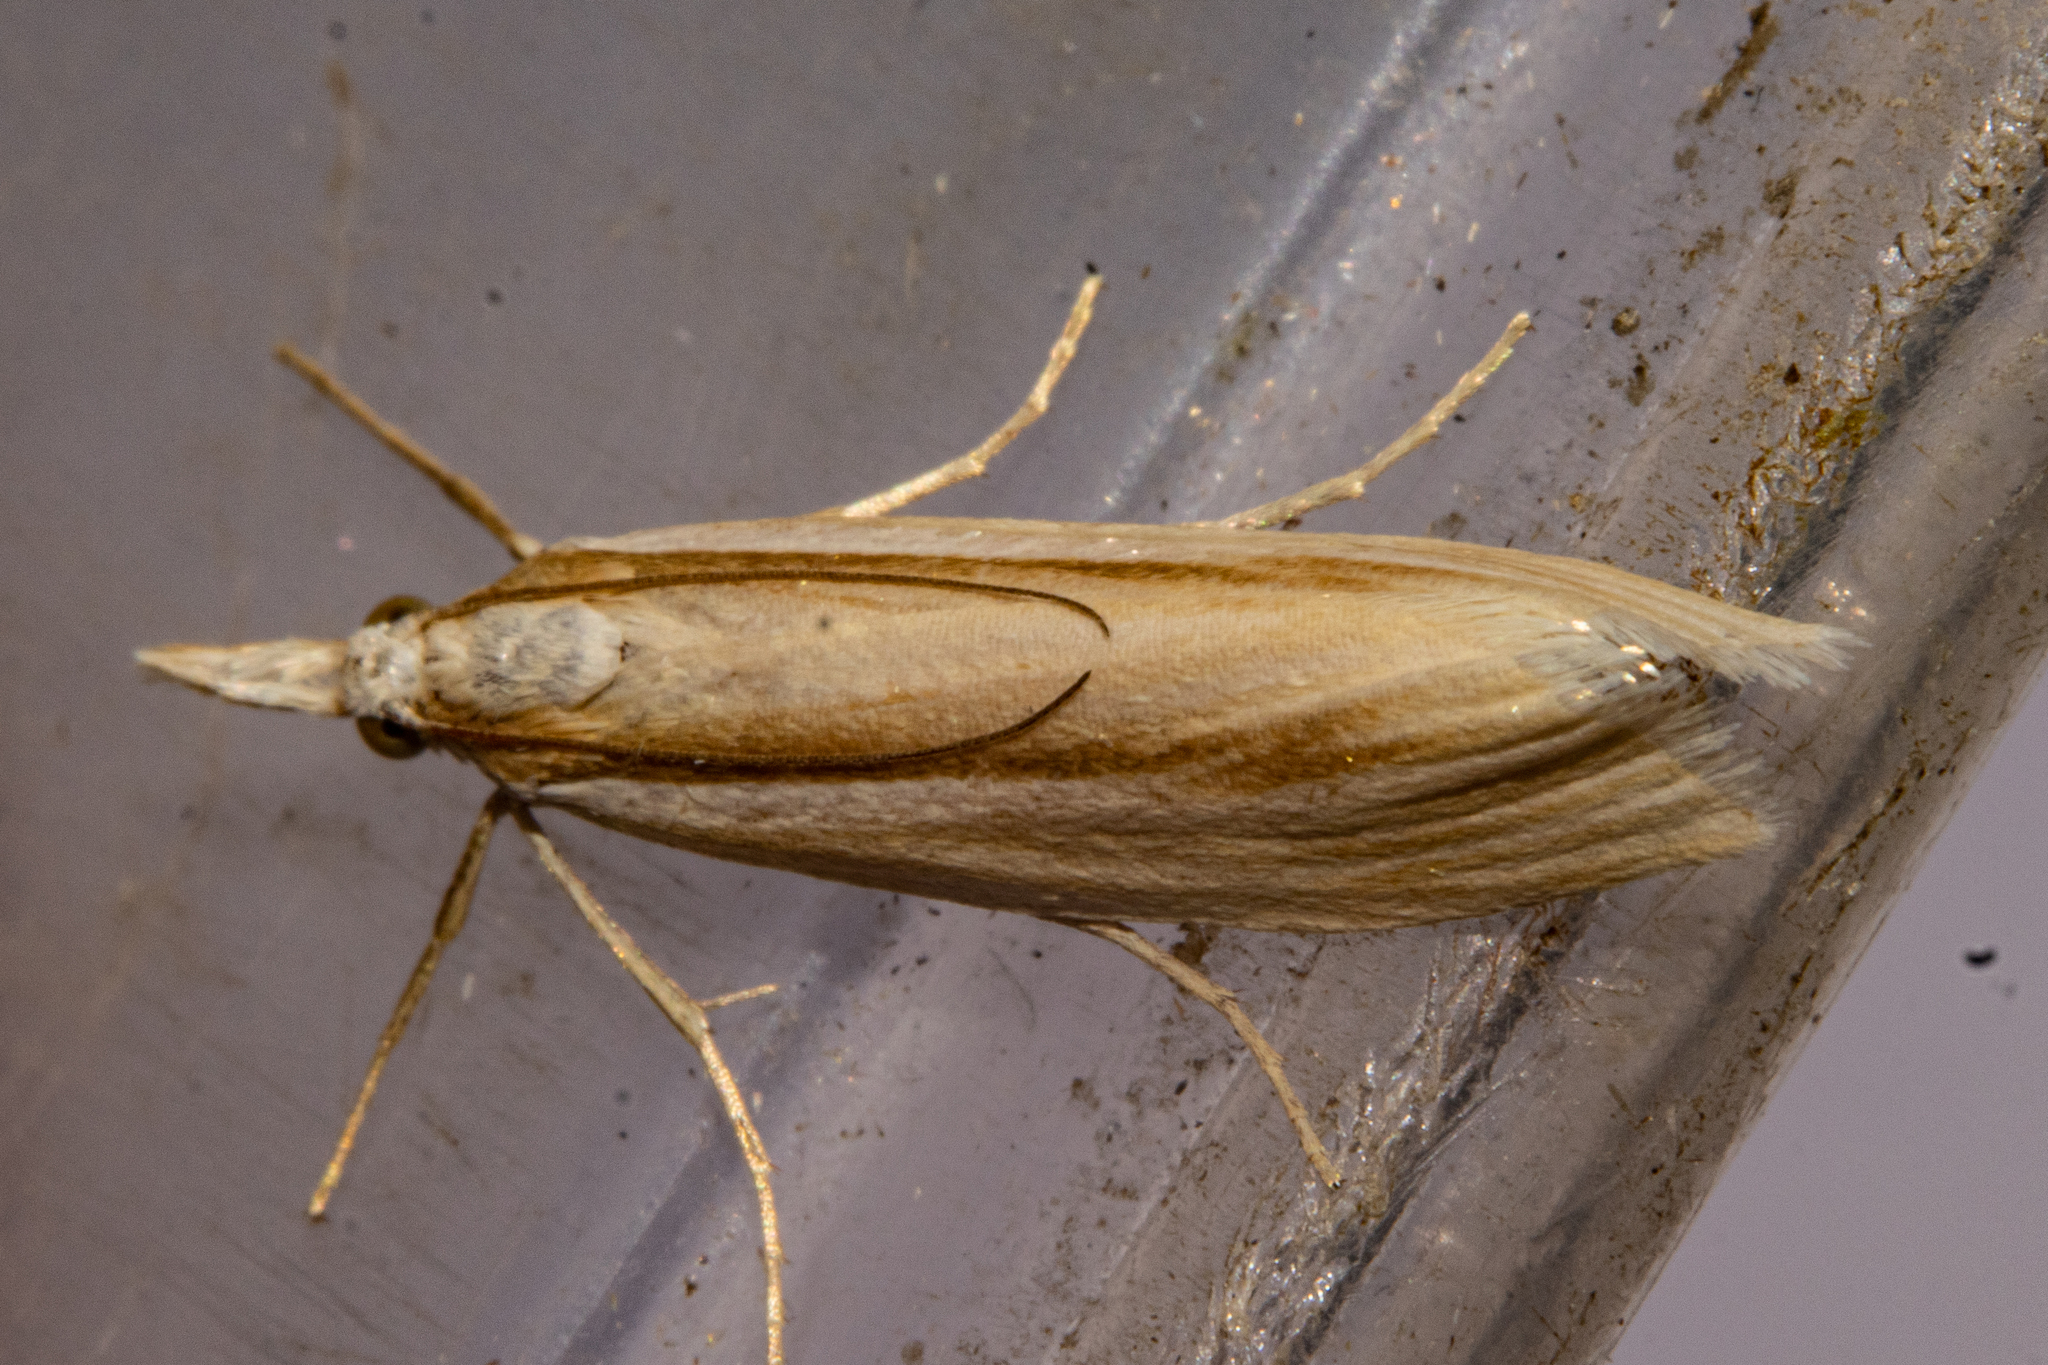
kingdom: Animalia
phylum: Arthropoda
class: Insecta
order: Lepidoptera
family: Crambidae
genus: Orocrambus
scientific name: Orocrambus ramosellus
